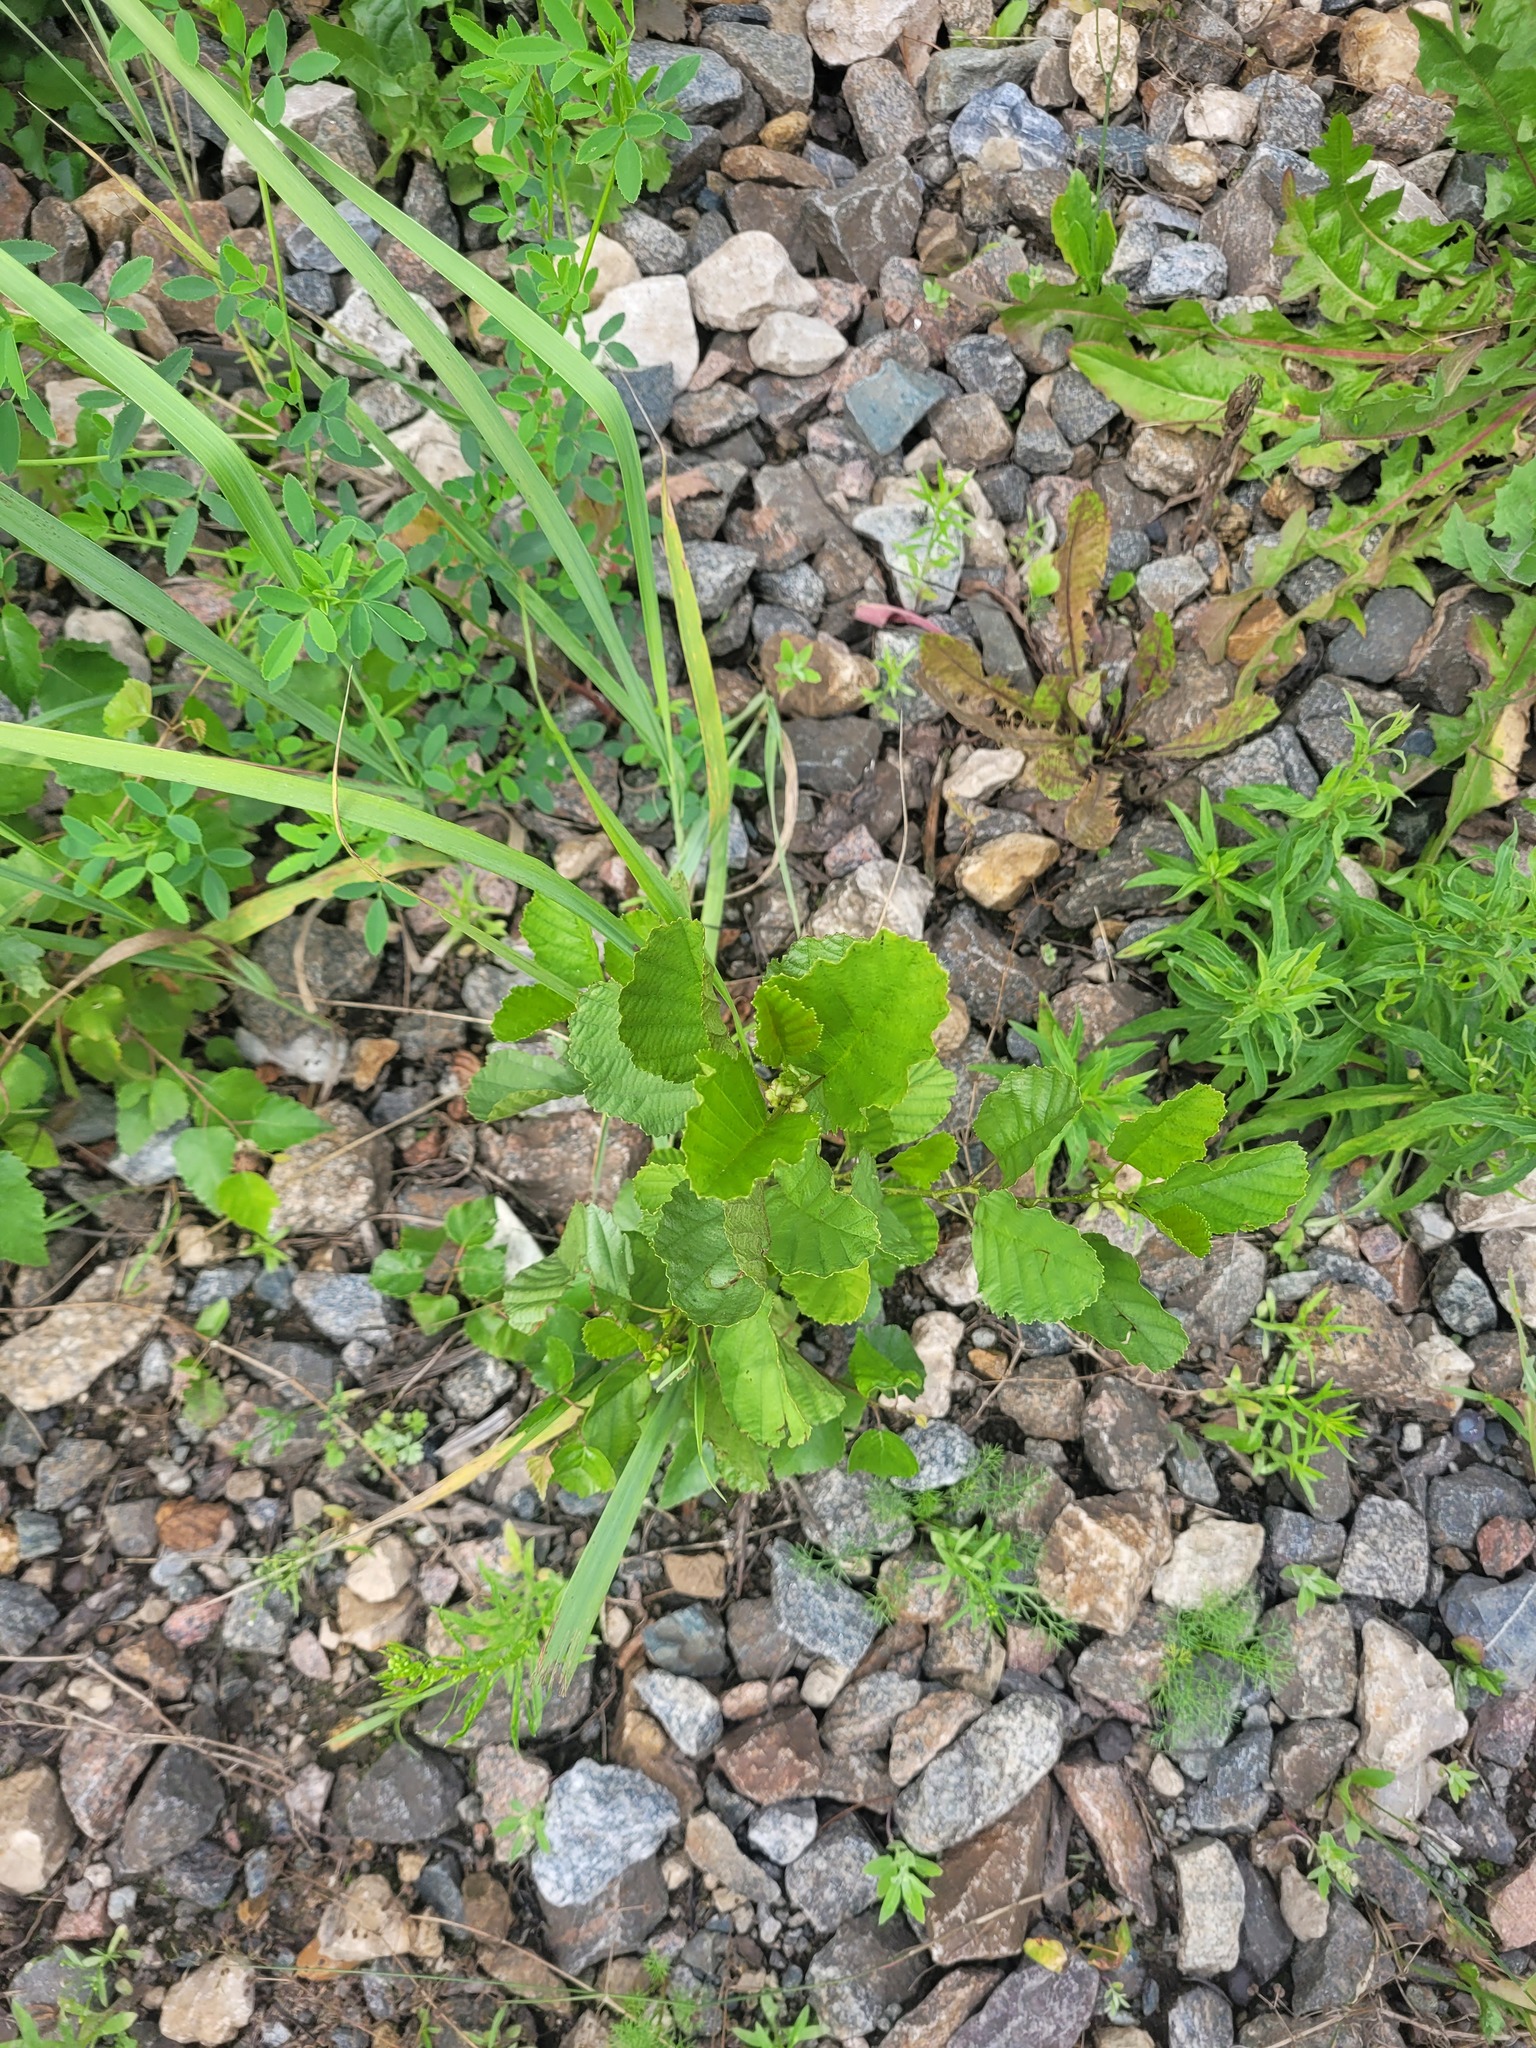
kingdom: Plantae
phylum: Tracheophyta
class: Magnoliopsida
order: Fagales
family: Betulaceae
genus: Alnus
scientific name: Alnus glutinosa
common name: Black alder
